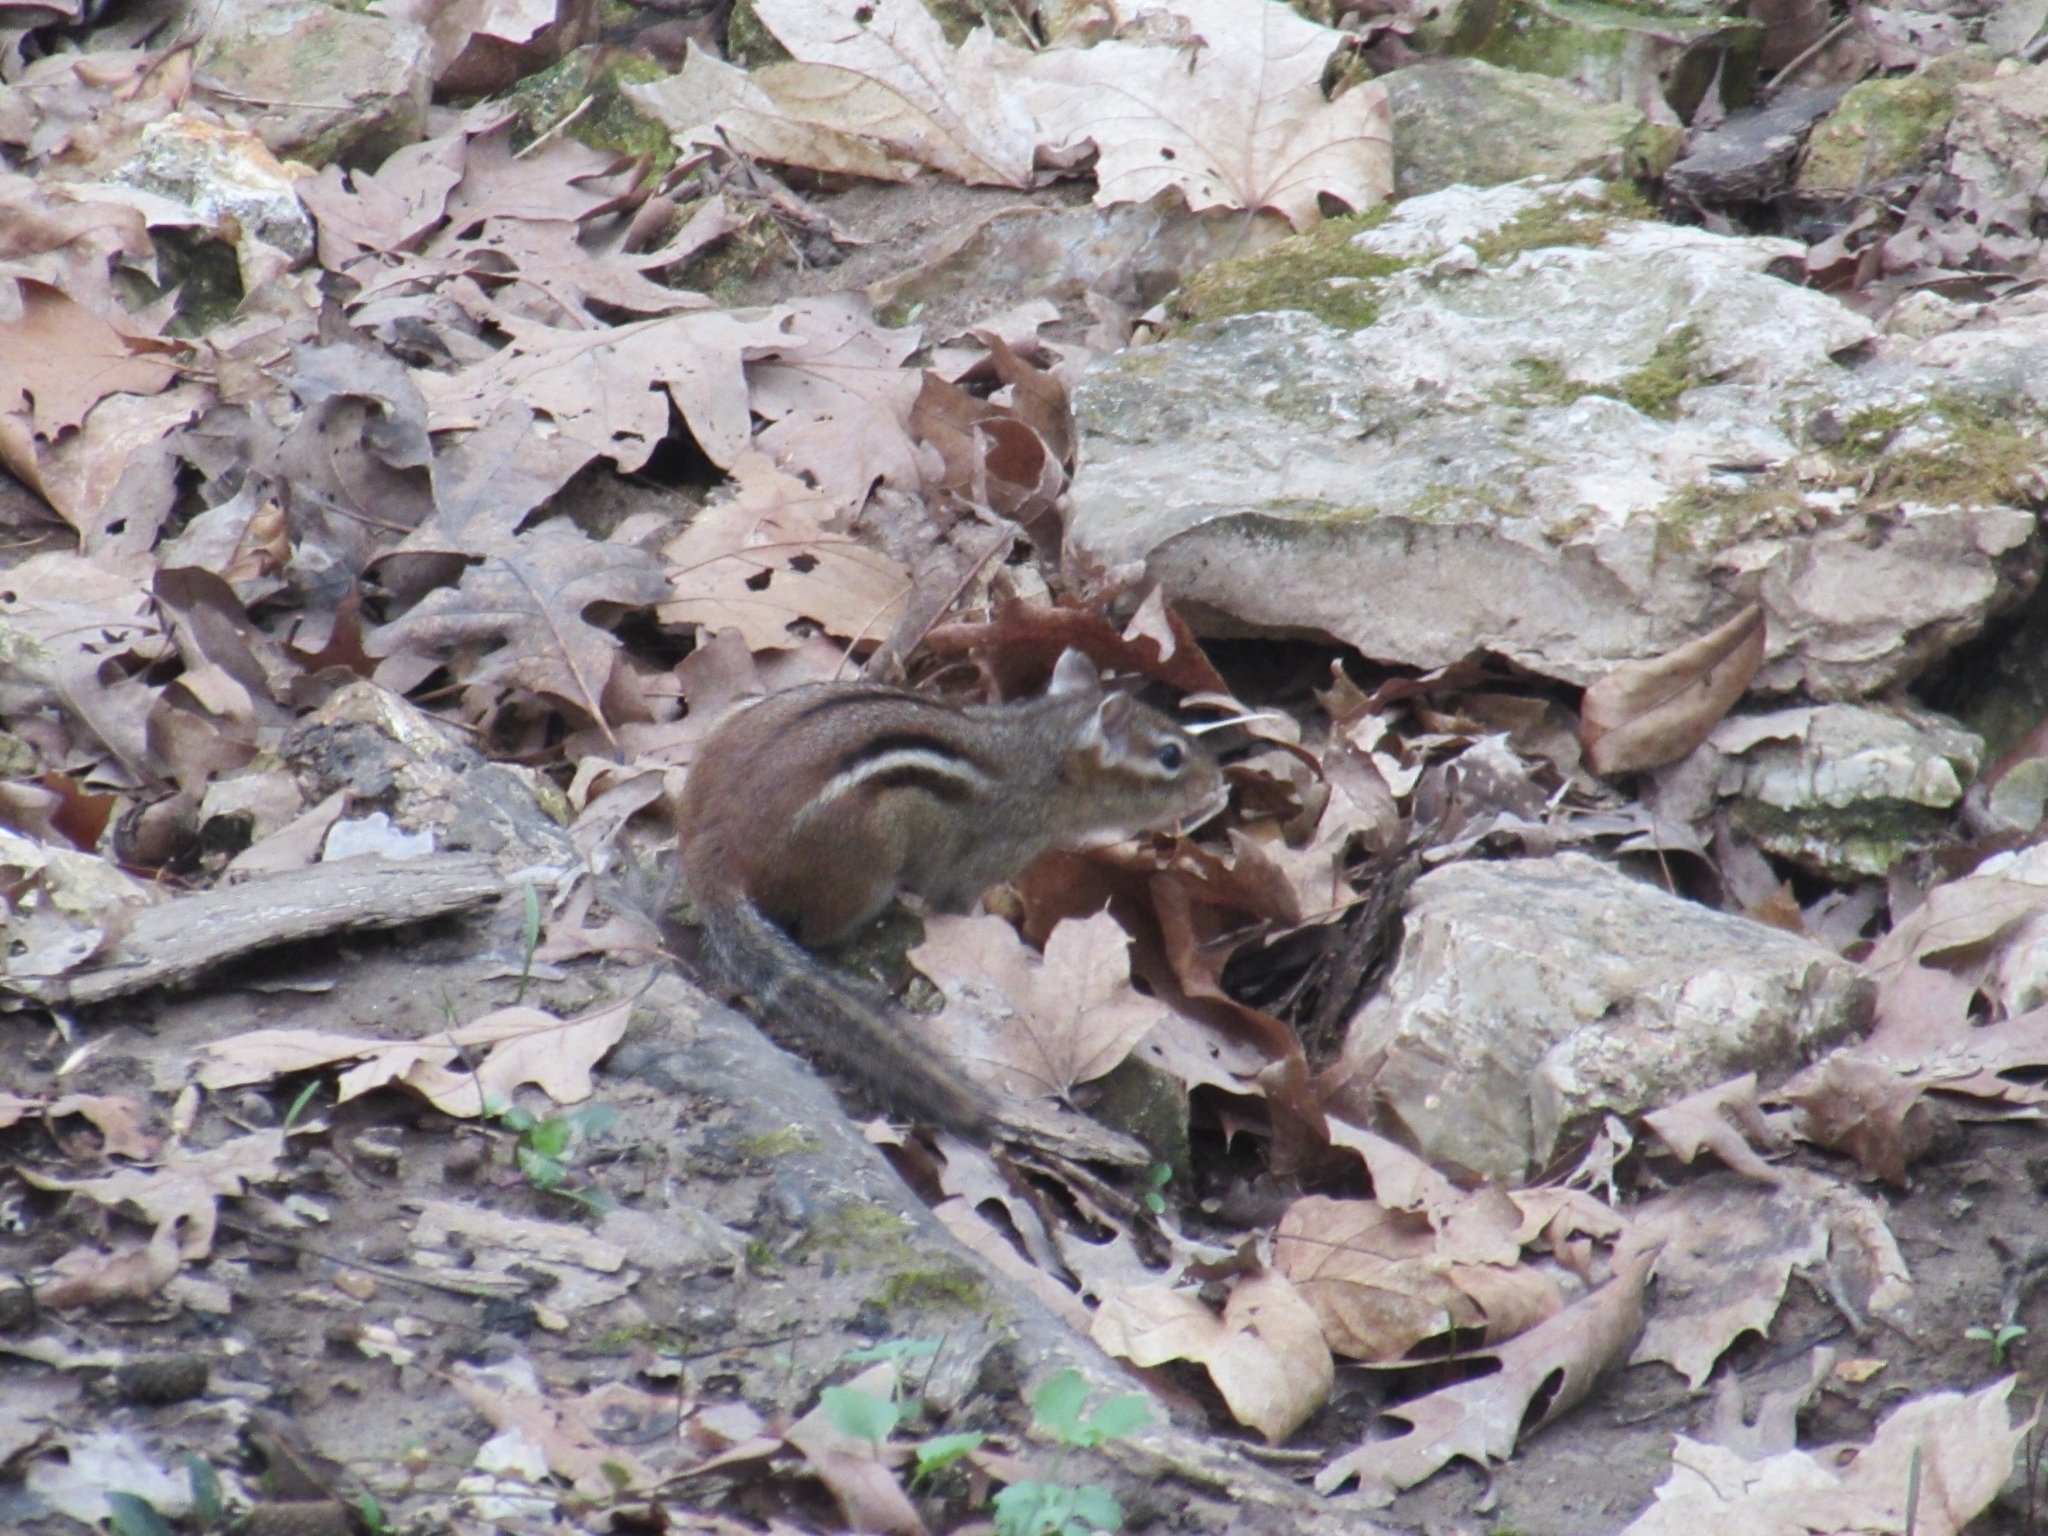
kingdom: Animalia
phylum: Chordata
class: Mammalia
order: Rodentia
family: Sciuridae
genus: Tamias
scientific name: Tamias striatus
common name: Eastern chipmunk
